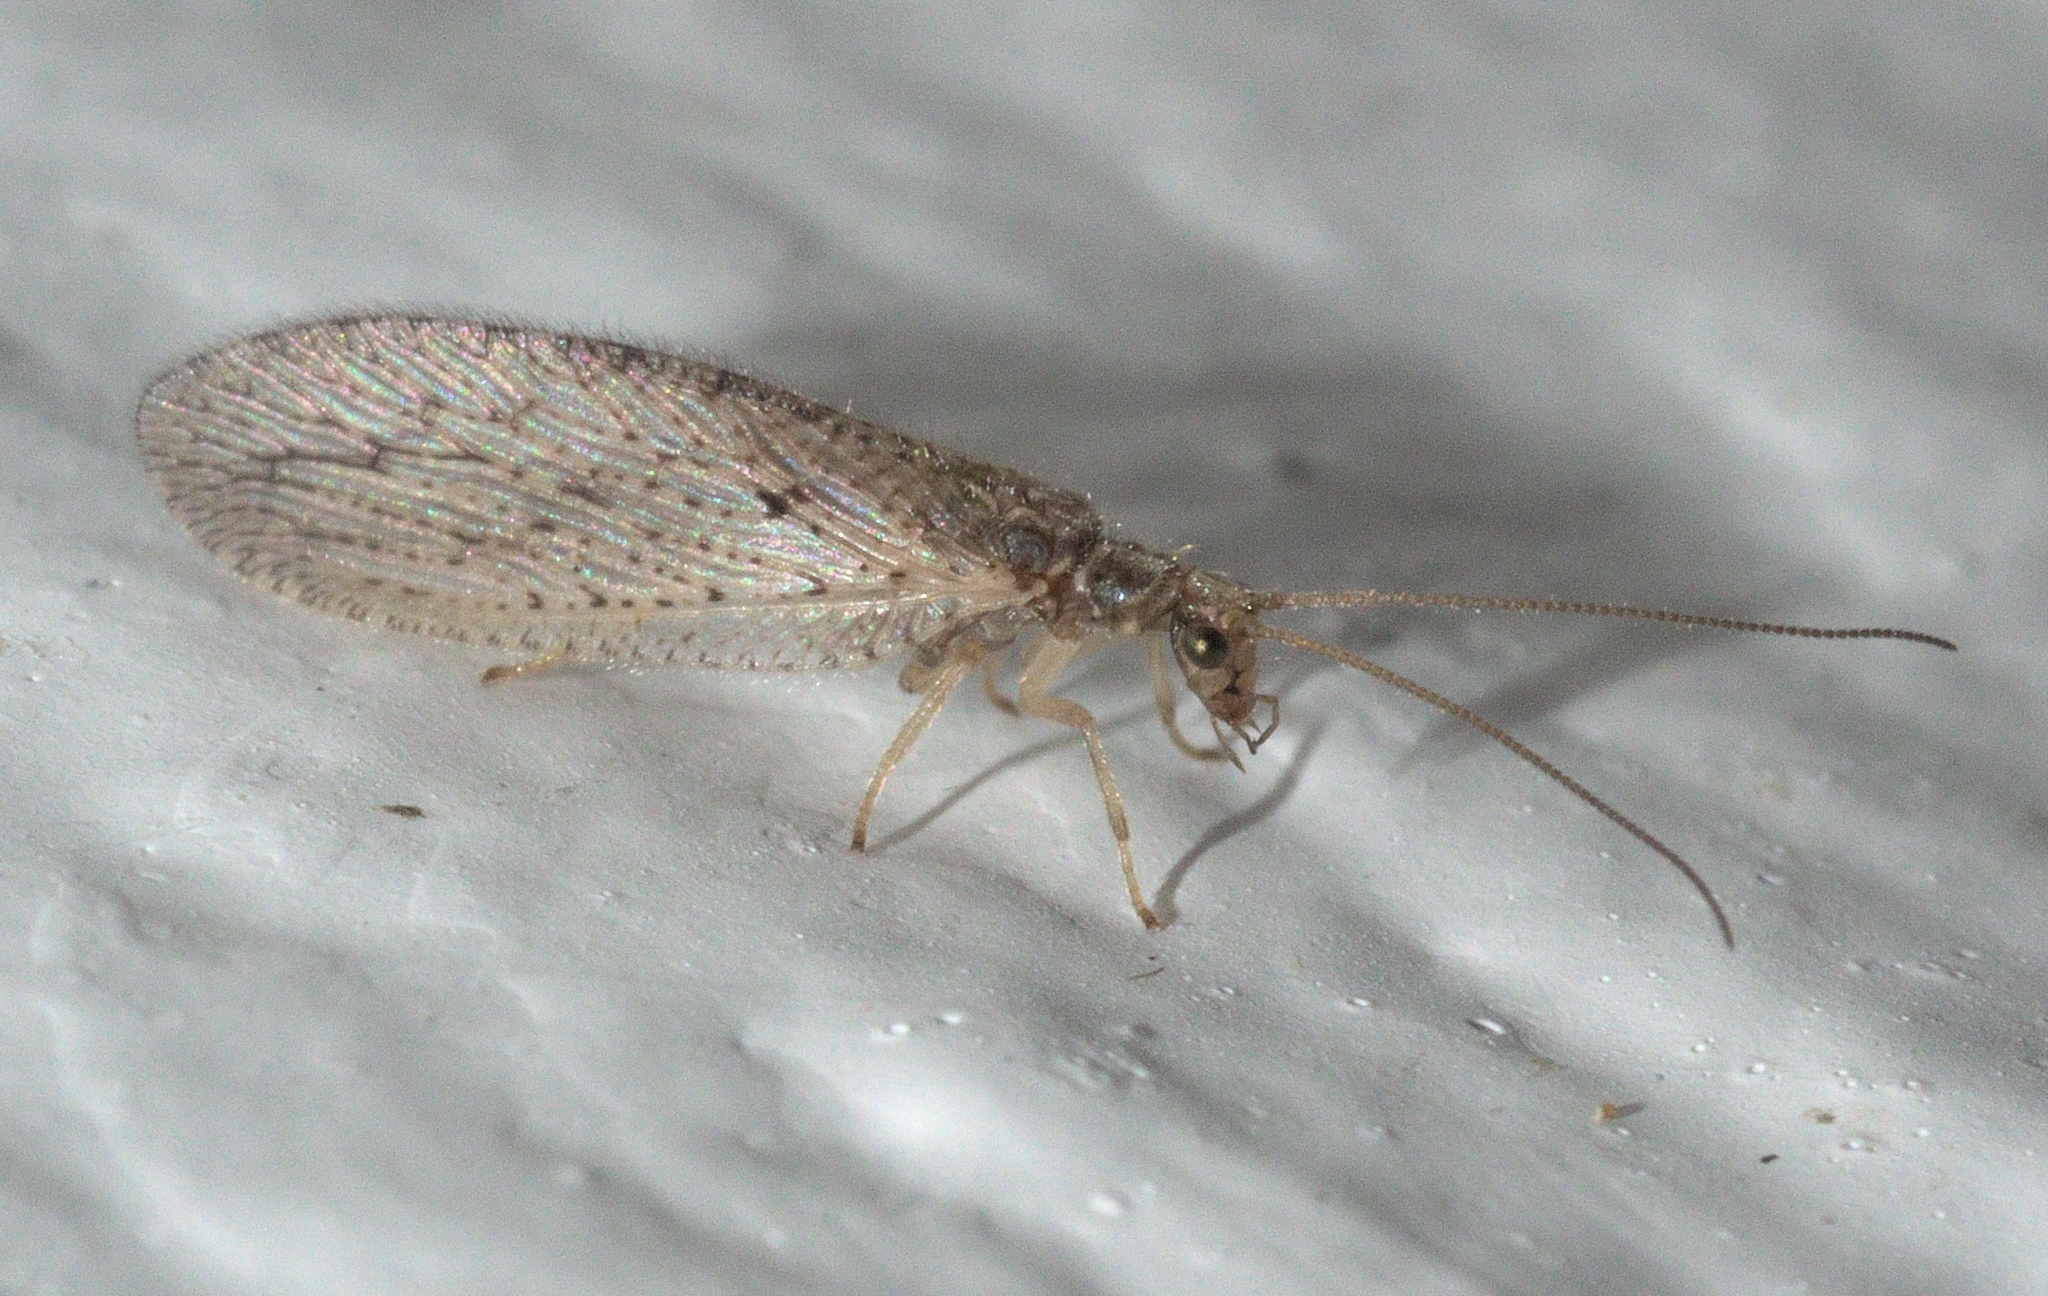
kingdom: Animalia
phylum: Arthropoda
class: Insecta
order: Neuroptera
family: Hemerobiidae
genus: Micromus
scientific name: Micromus subanticus
